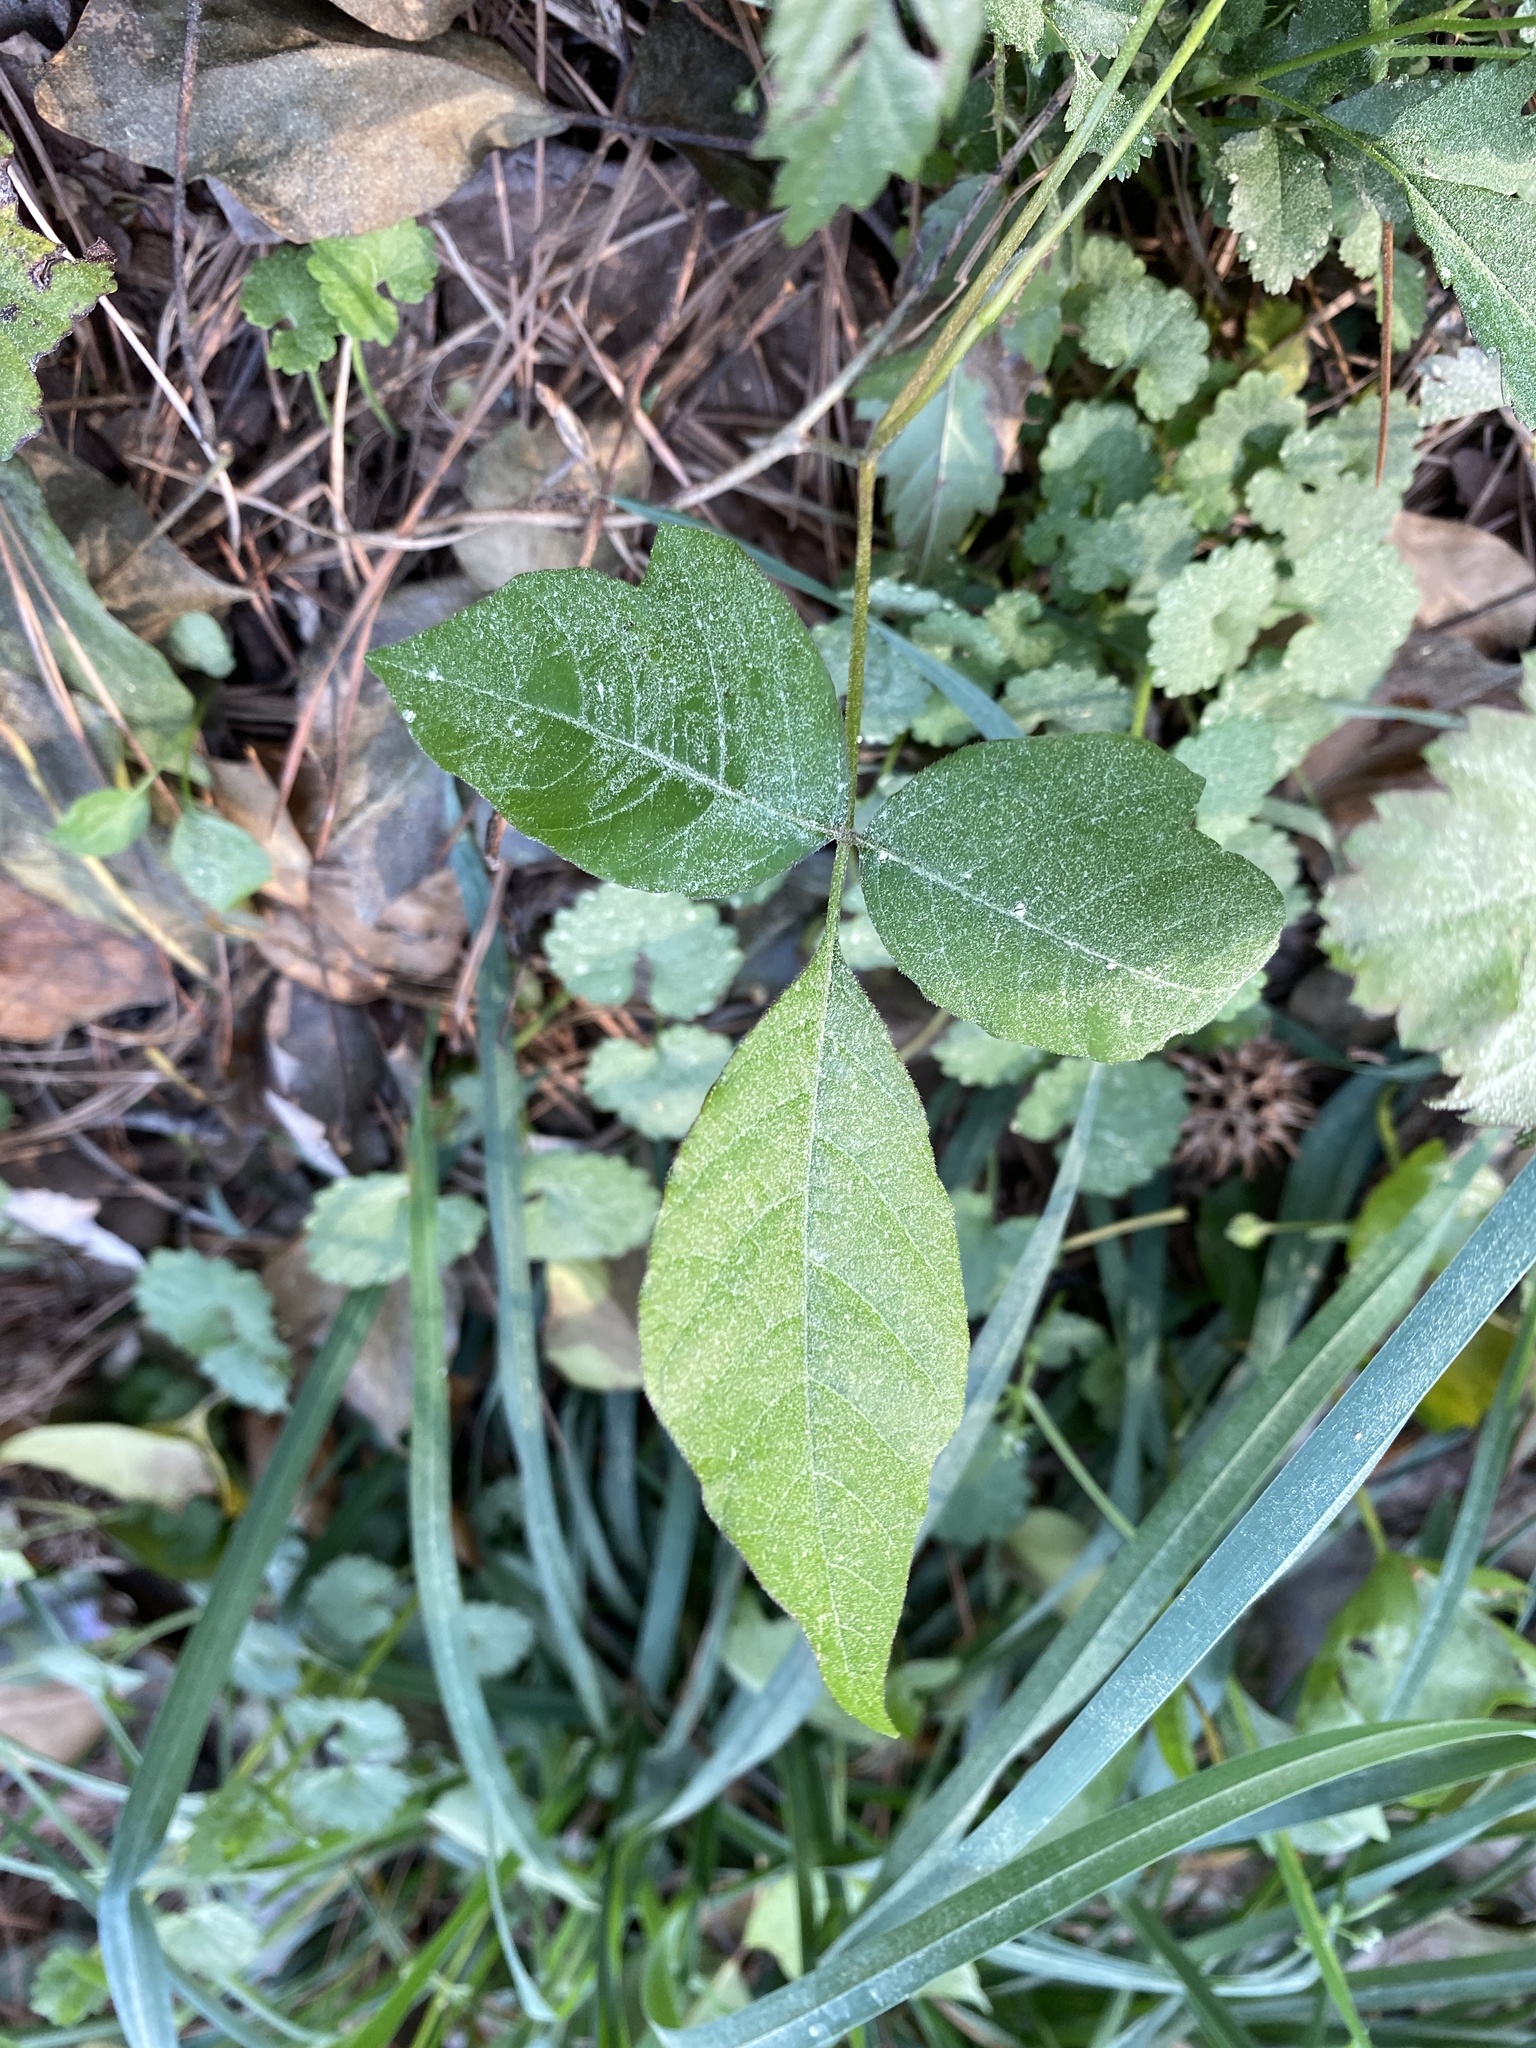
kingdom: Plantae
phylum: Tracheophyta
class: Magnoliopsida
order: Sapindales
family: Anacardiaceae
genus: Toxicodendron
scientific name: Toxicodendron radicans
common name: Poison ivy
